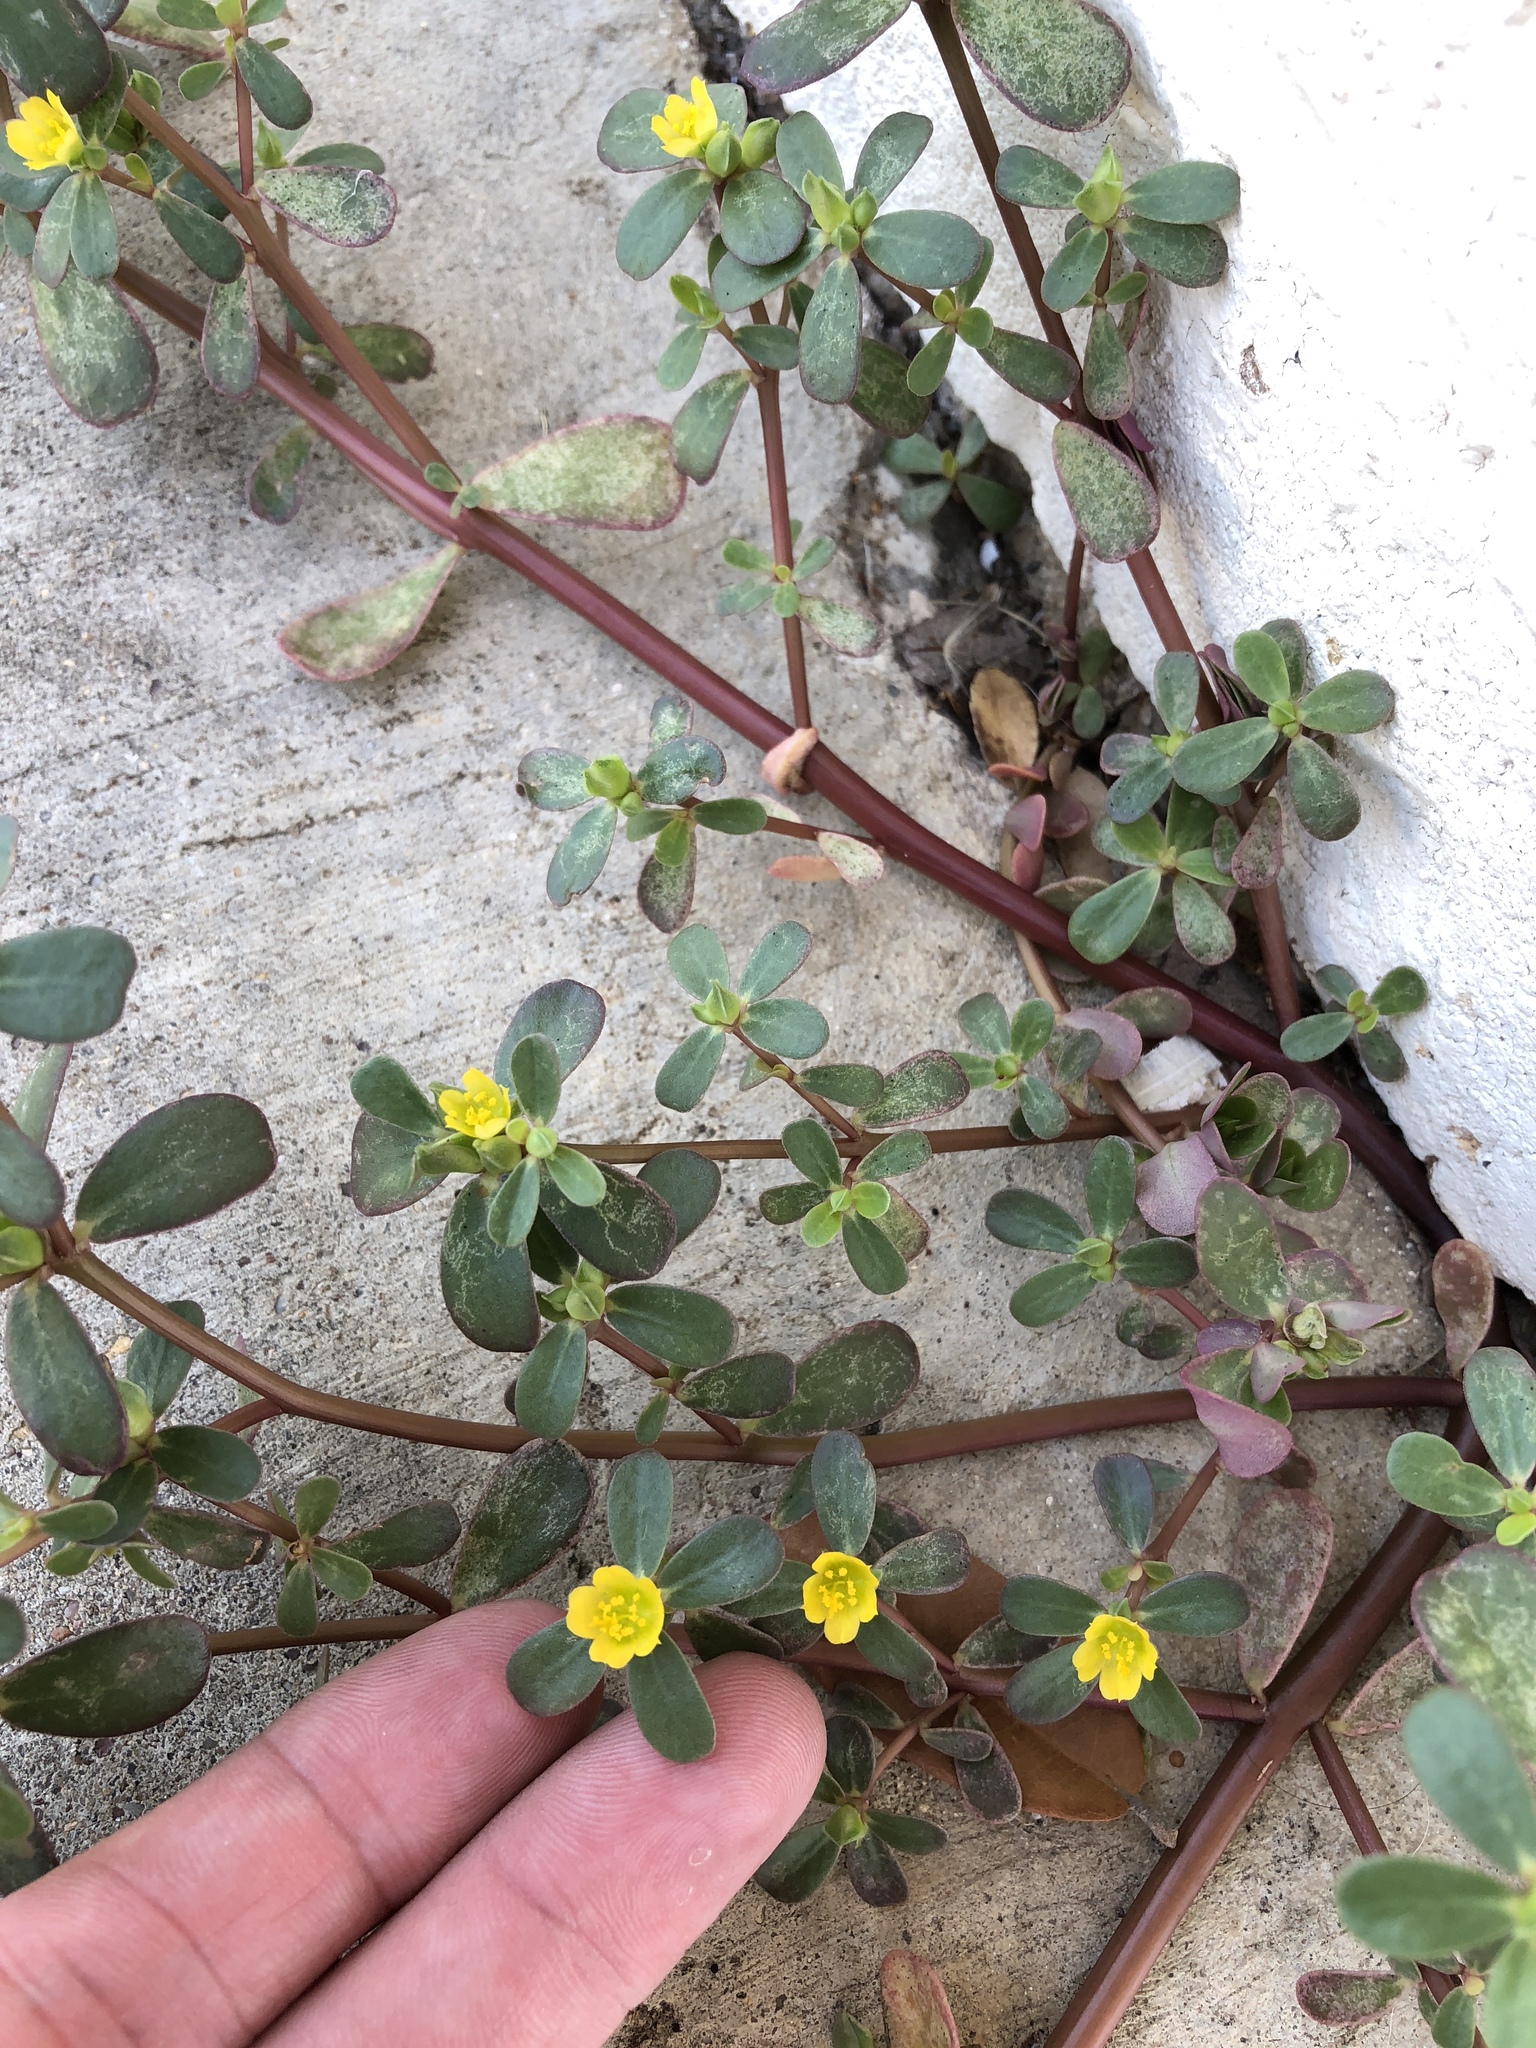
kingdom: Plantae
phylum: Tracheophyta
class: Magnoliopsida
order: Caryophyllales
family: Portulacaceae
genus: Portulaca
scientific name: Portulaca oleracea
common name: Common purslane
